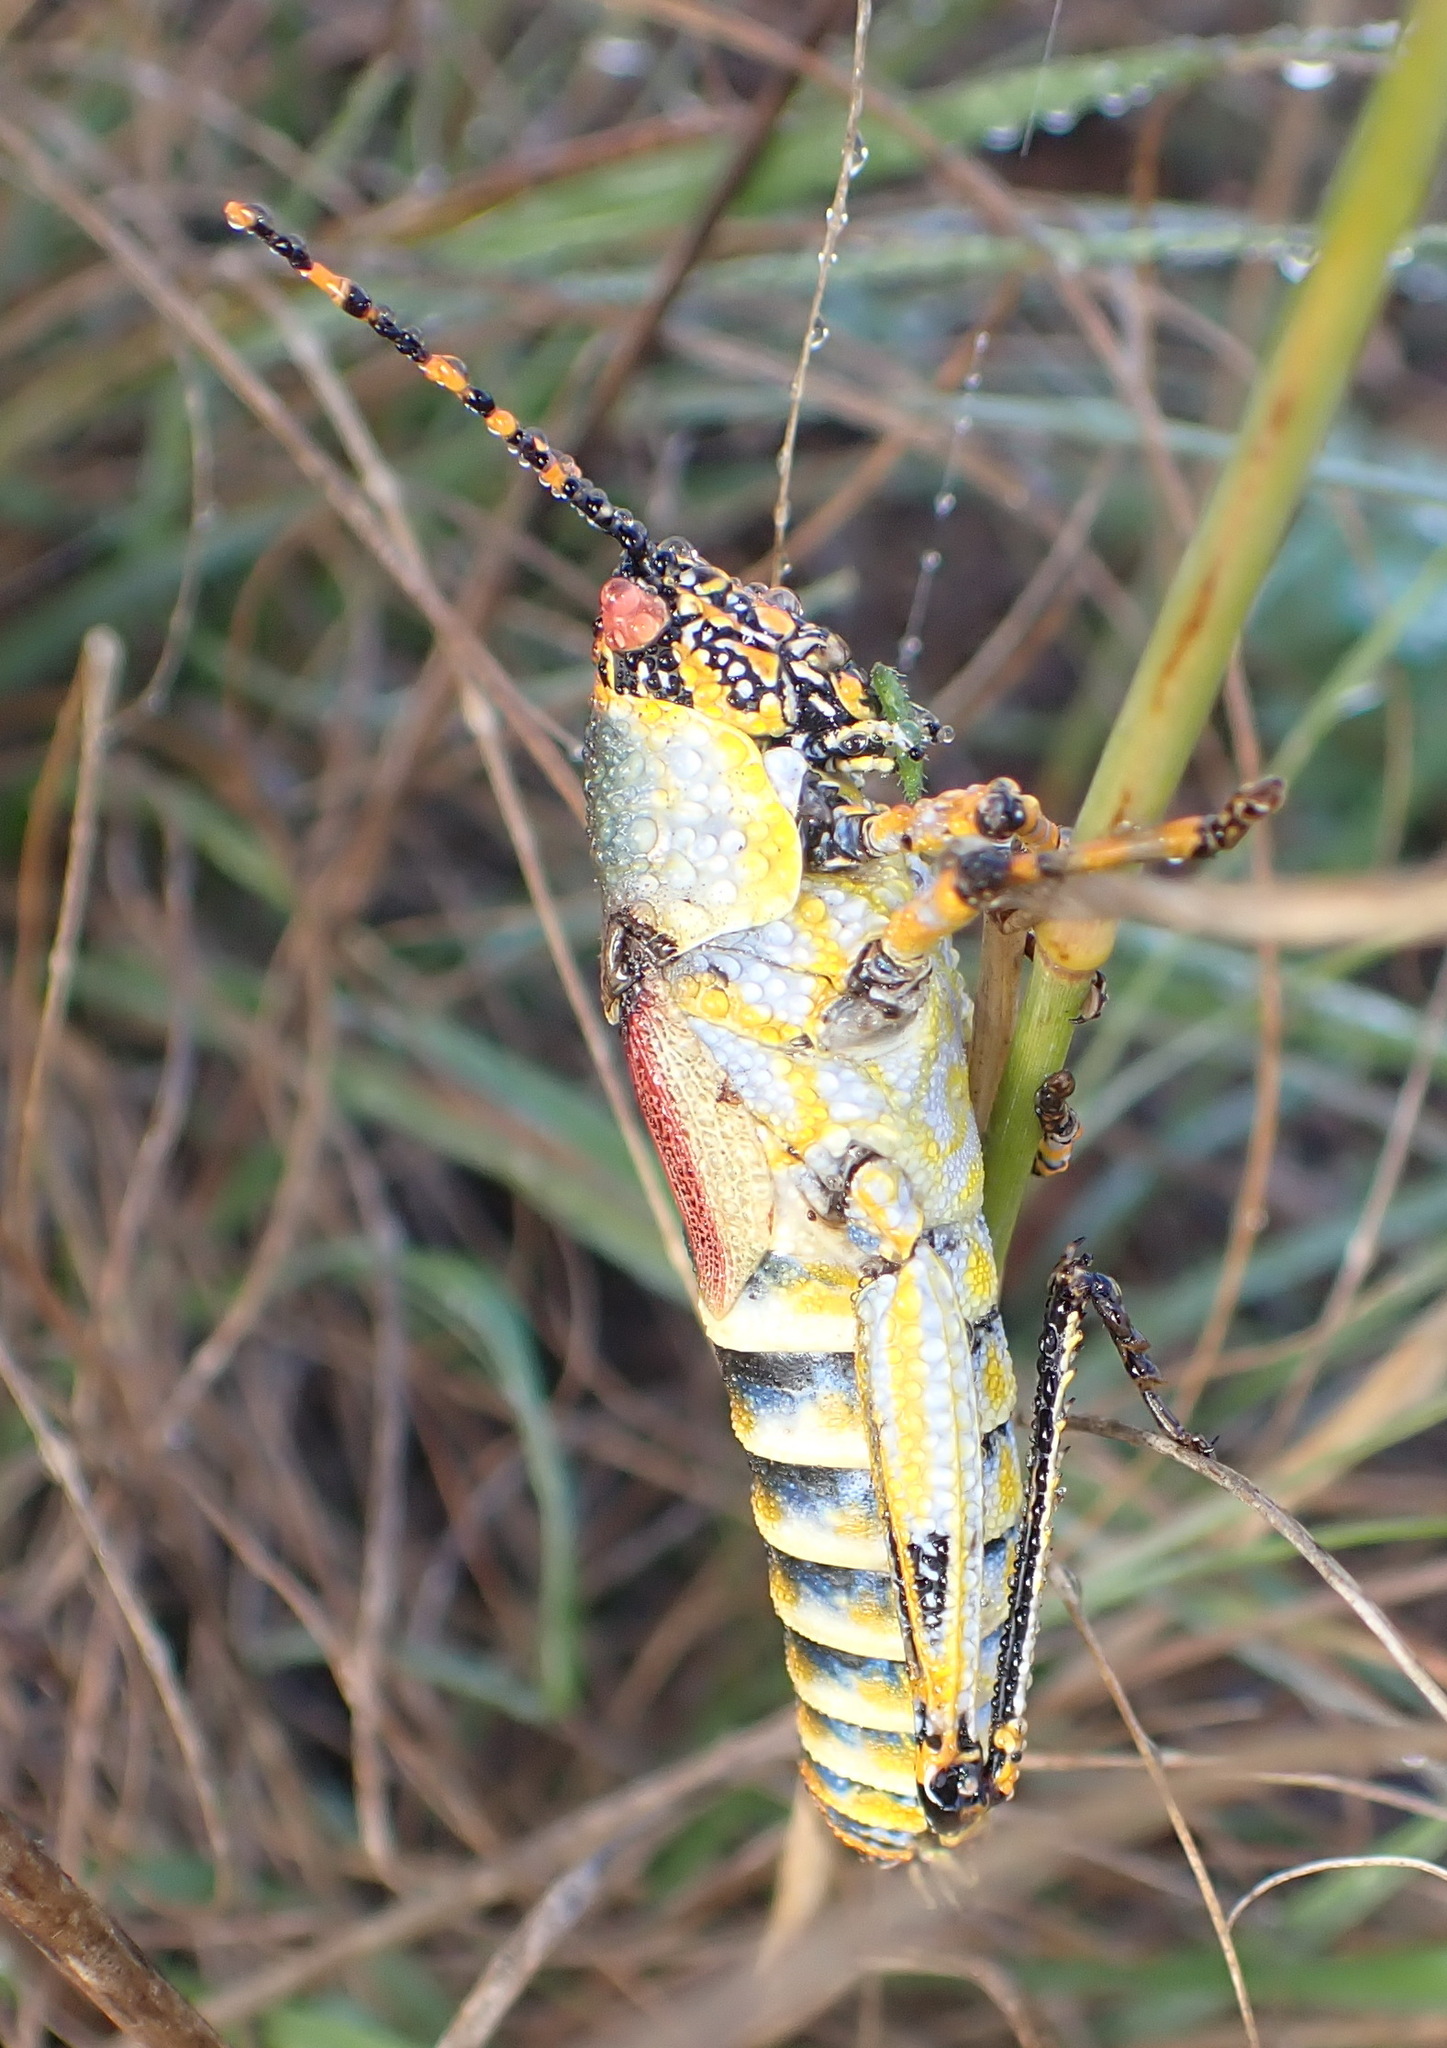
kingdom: Animalia
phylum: Arthropoda
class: Insecta
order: Orthoptera
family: Pyrgomorphidae
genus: Zonocerus
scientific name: Zonocerus elegans
